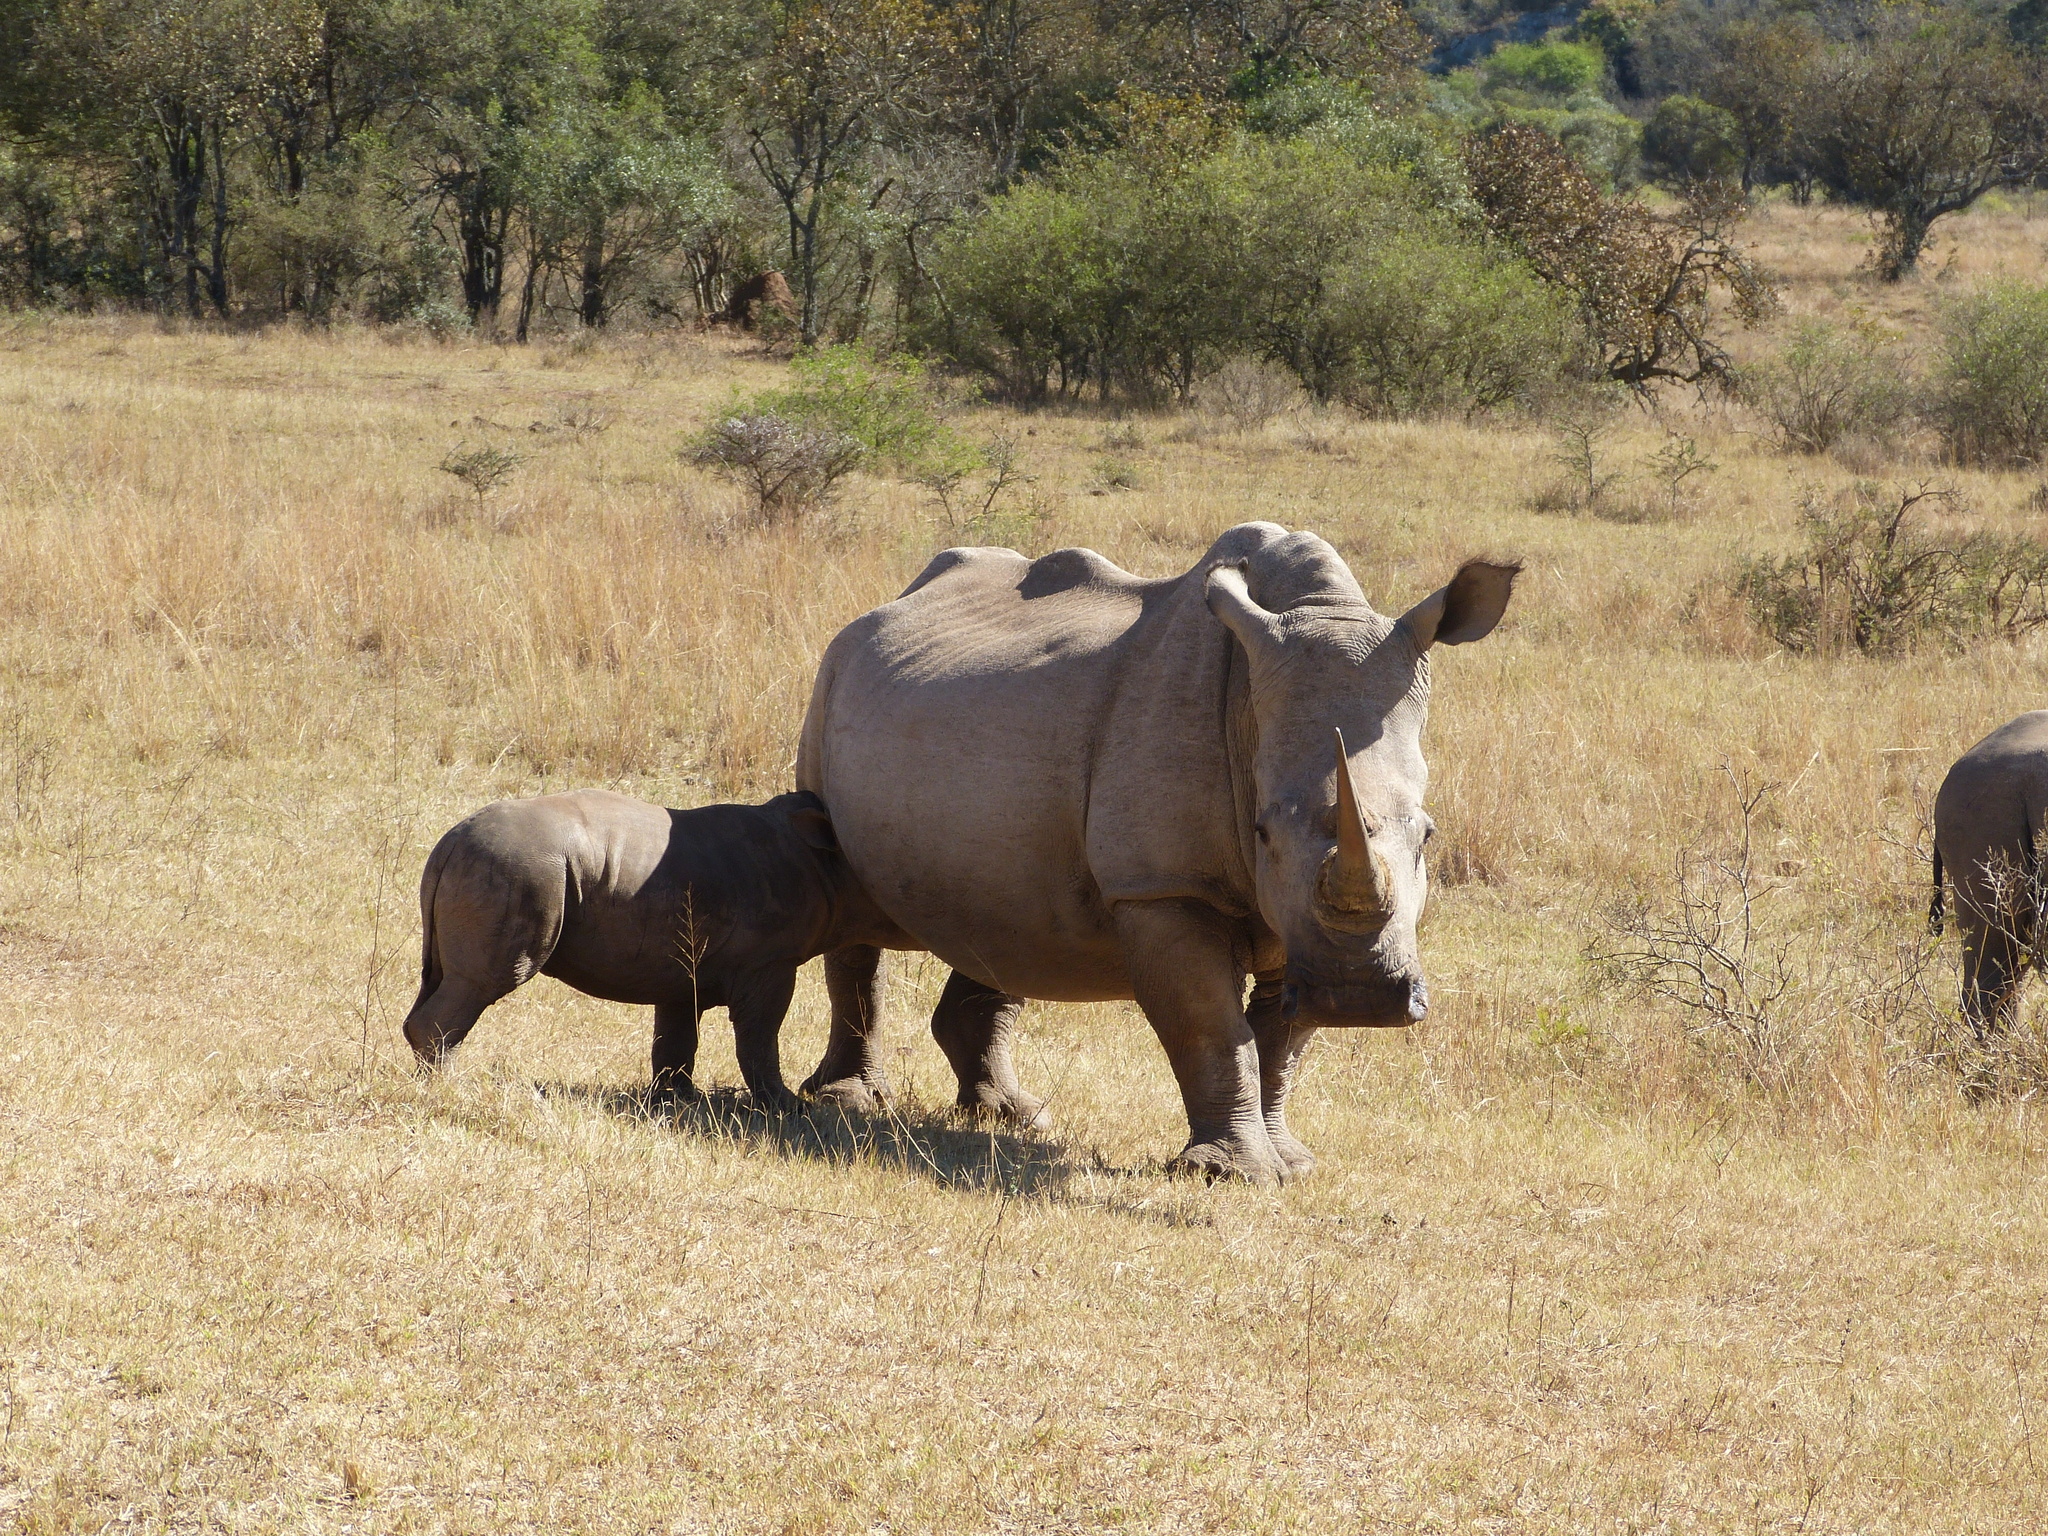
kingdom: Animalia
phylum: Chordata
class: Mammalia
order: Perissodactyla
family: Rhinocerotidae
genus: Ceratotherium
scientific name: Ceratotherium simum
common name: White rhinoceros
